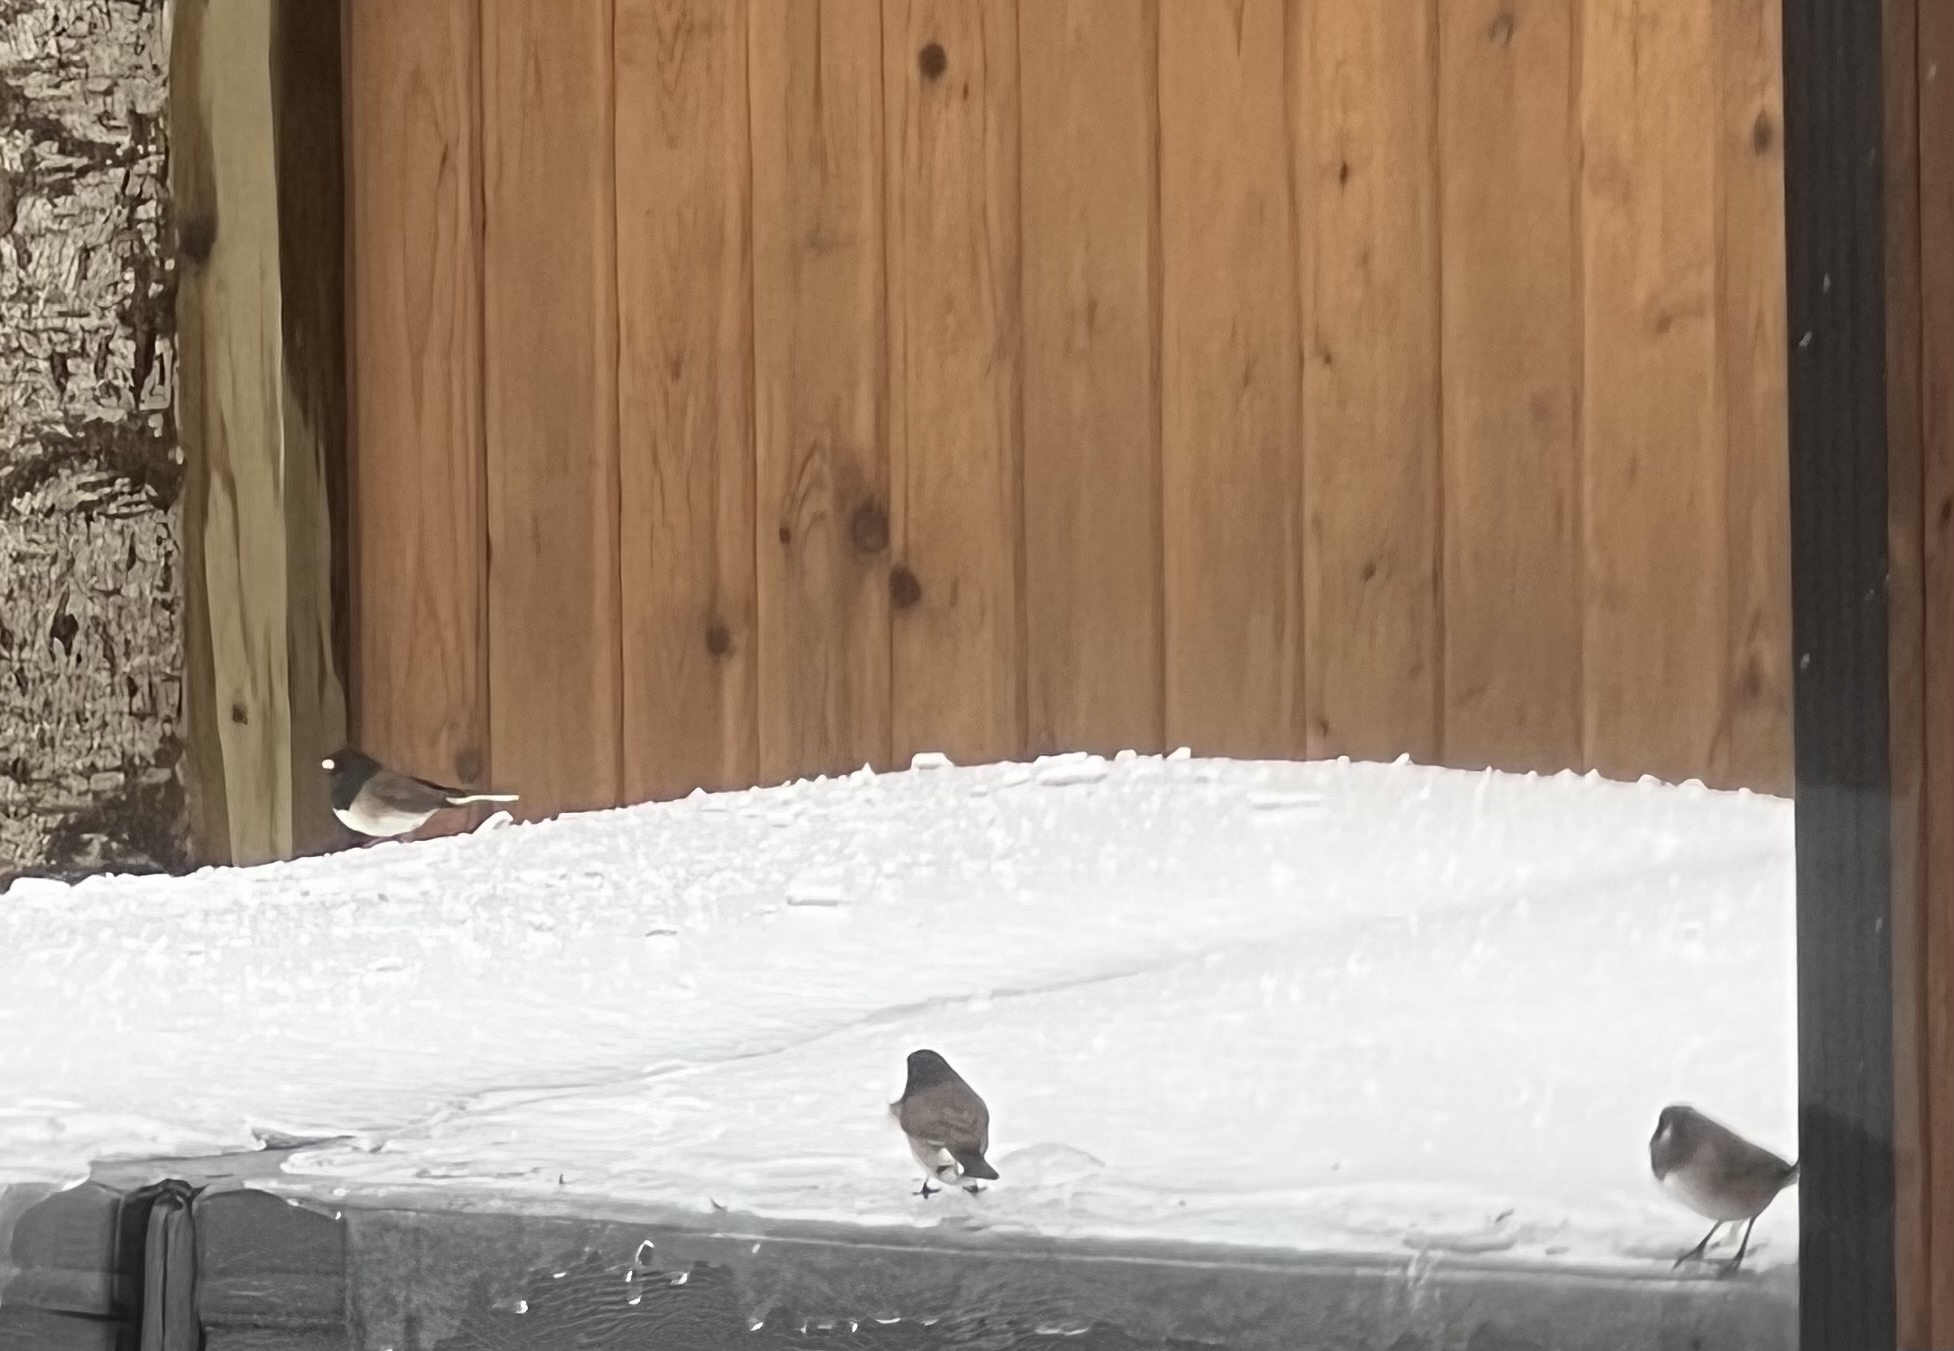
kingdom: Animalia
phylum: Chordata
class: Aves
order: Passeriformes
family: Passerellidae
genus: Junco
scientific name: Junco hyemalis
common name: Dark-eyed junco
